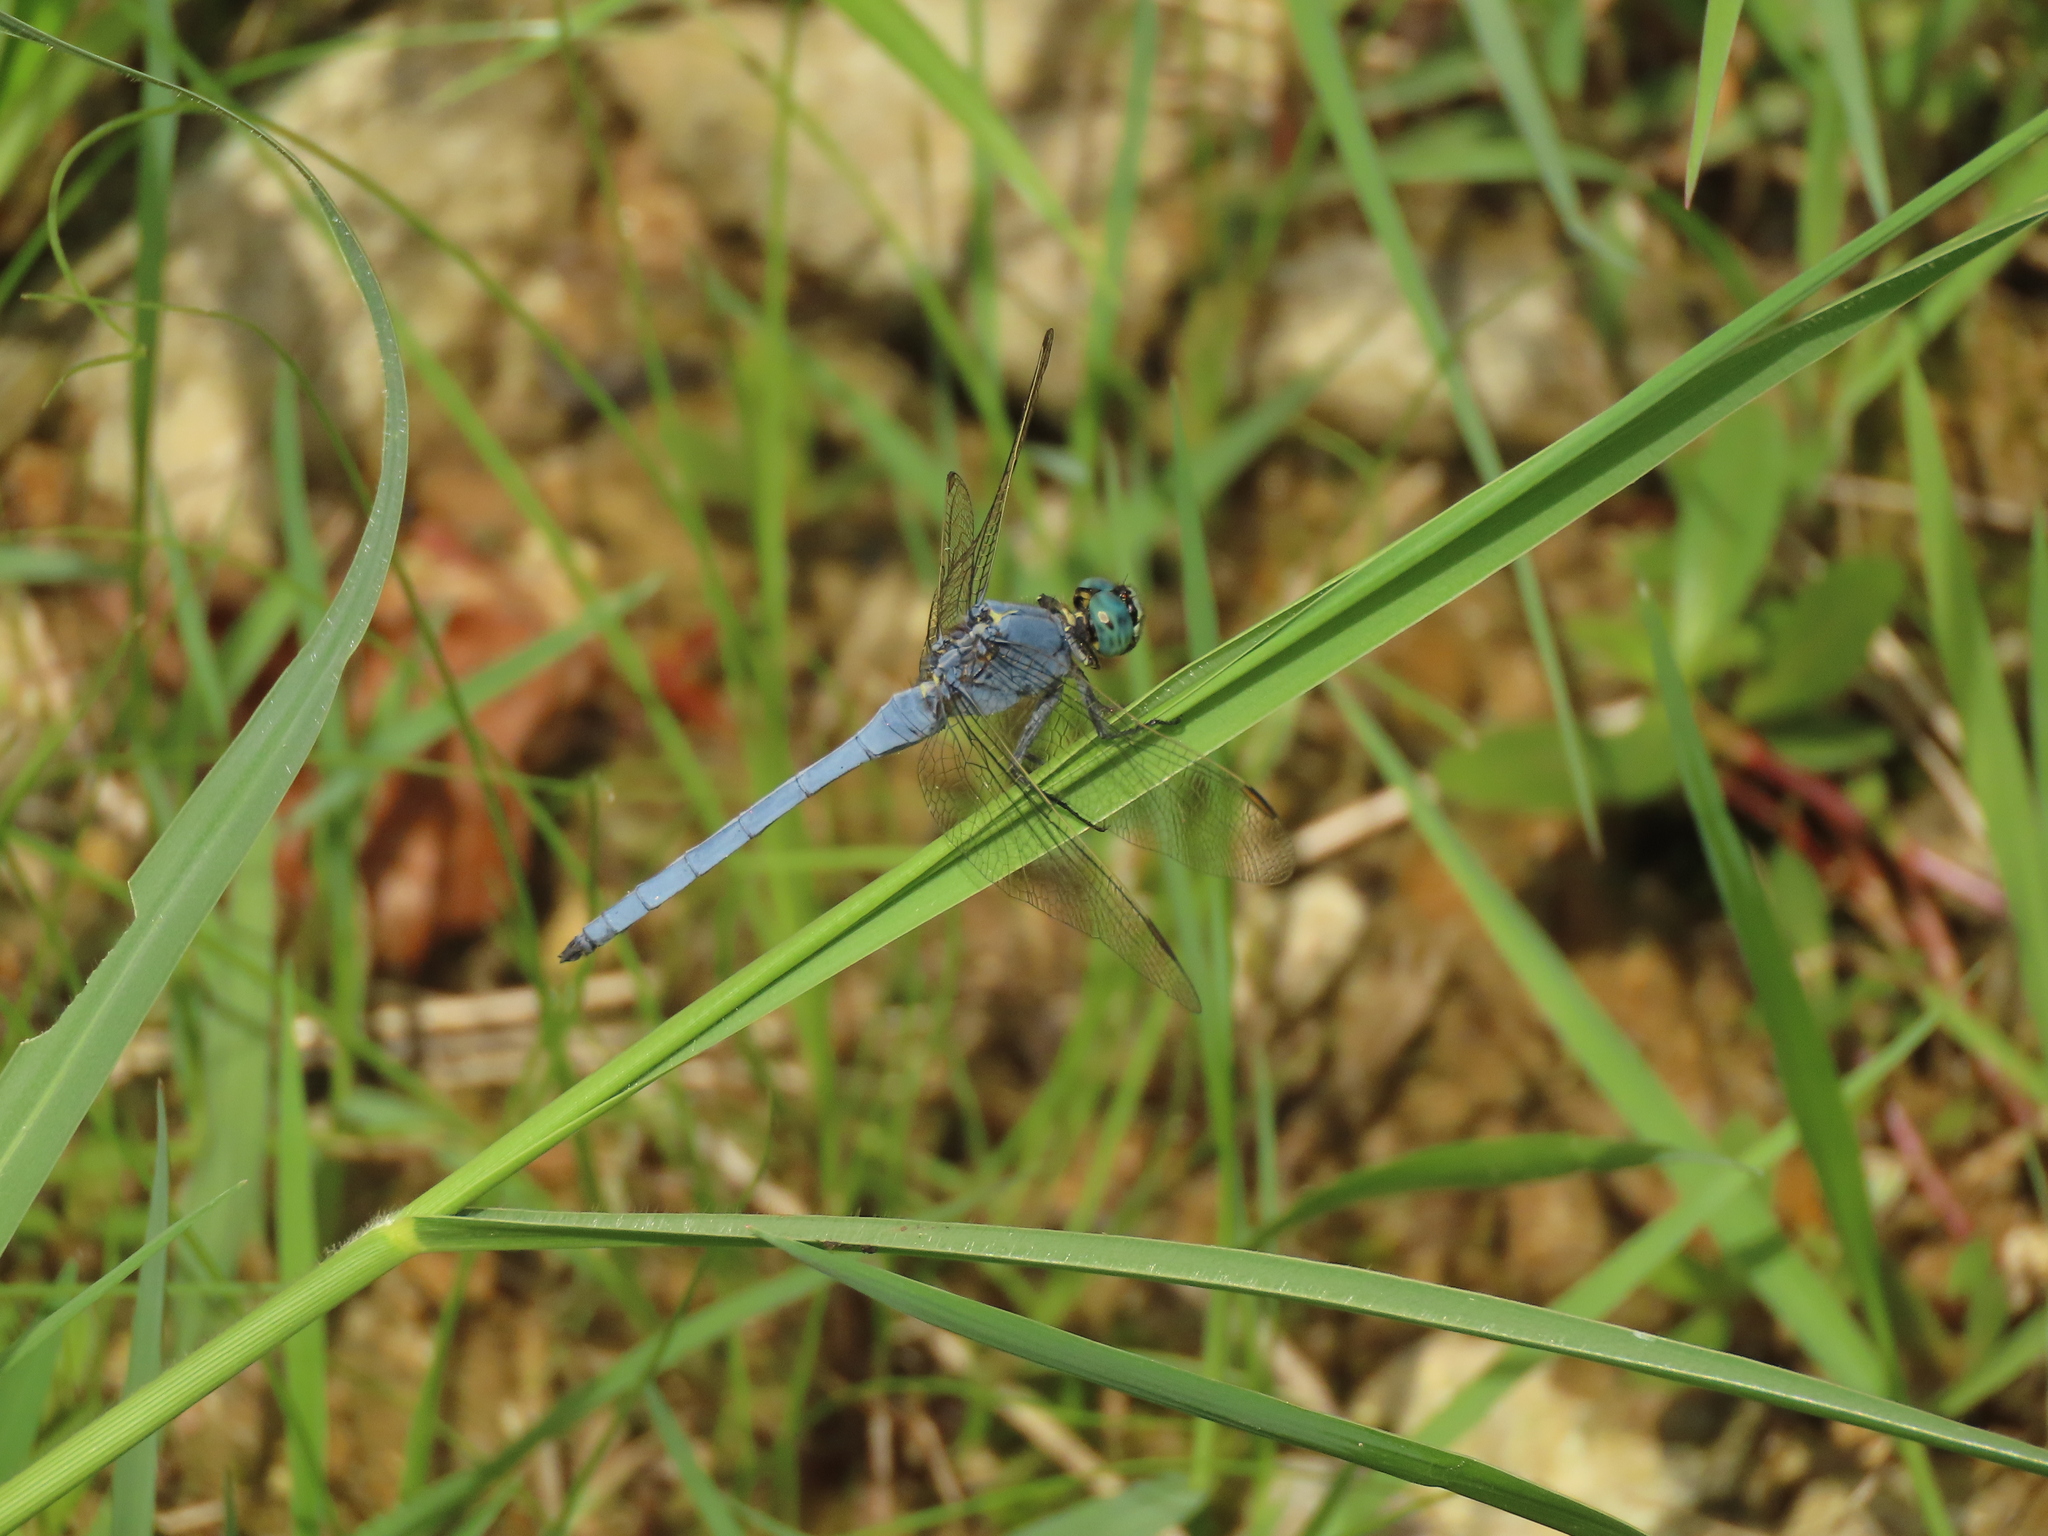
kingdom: Animalia
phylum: Arthropoda
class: Insecta
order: Odonata
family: Libellulidae
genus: Orthetrum
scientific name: Orthetrum luzonicum
